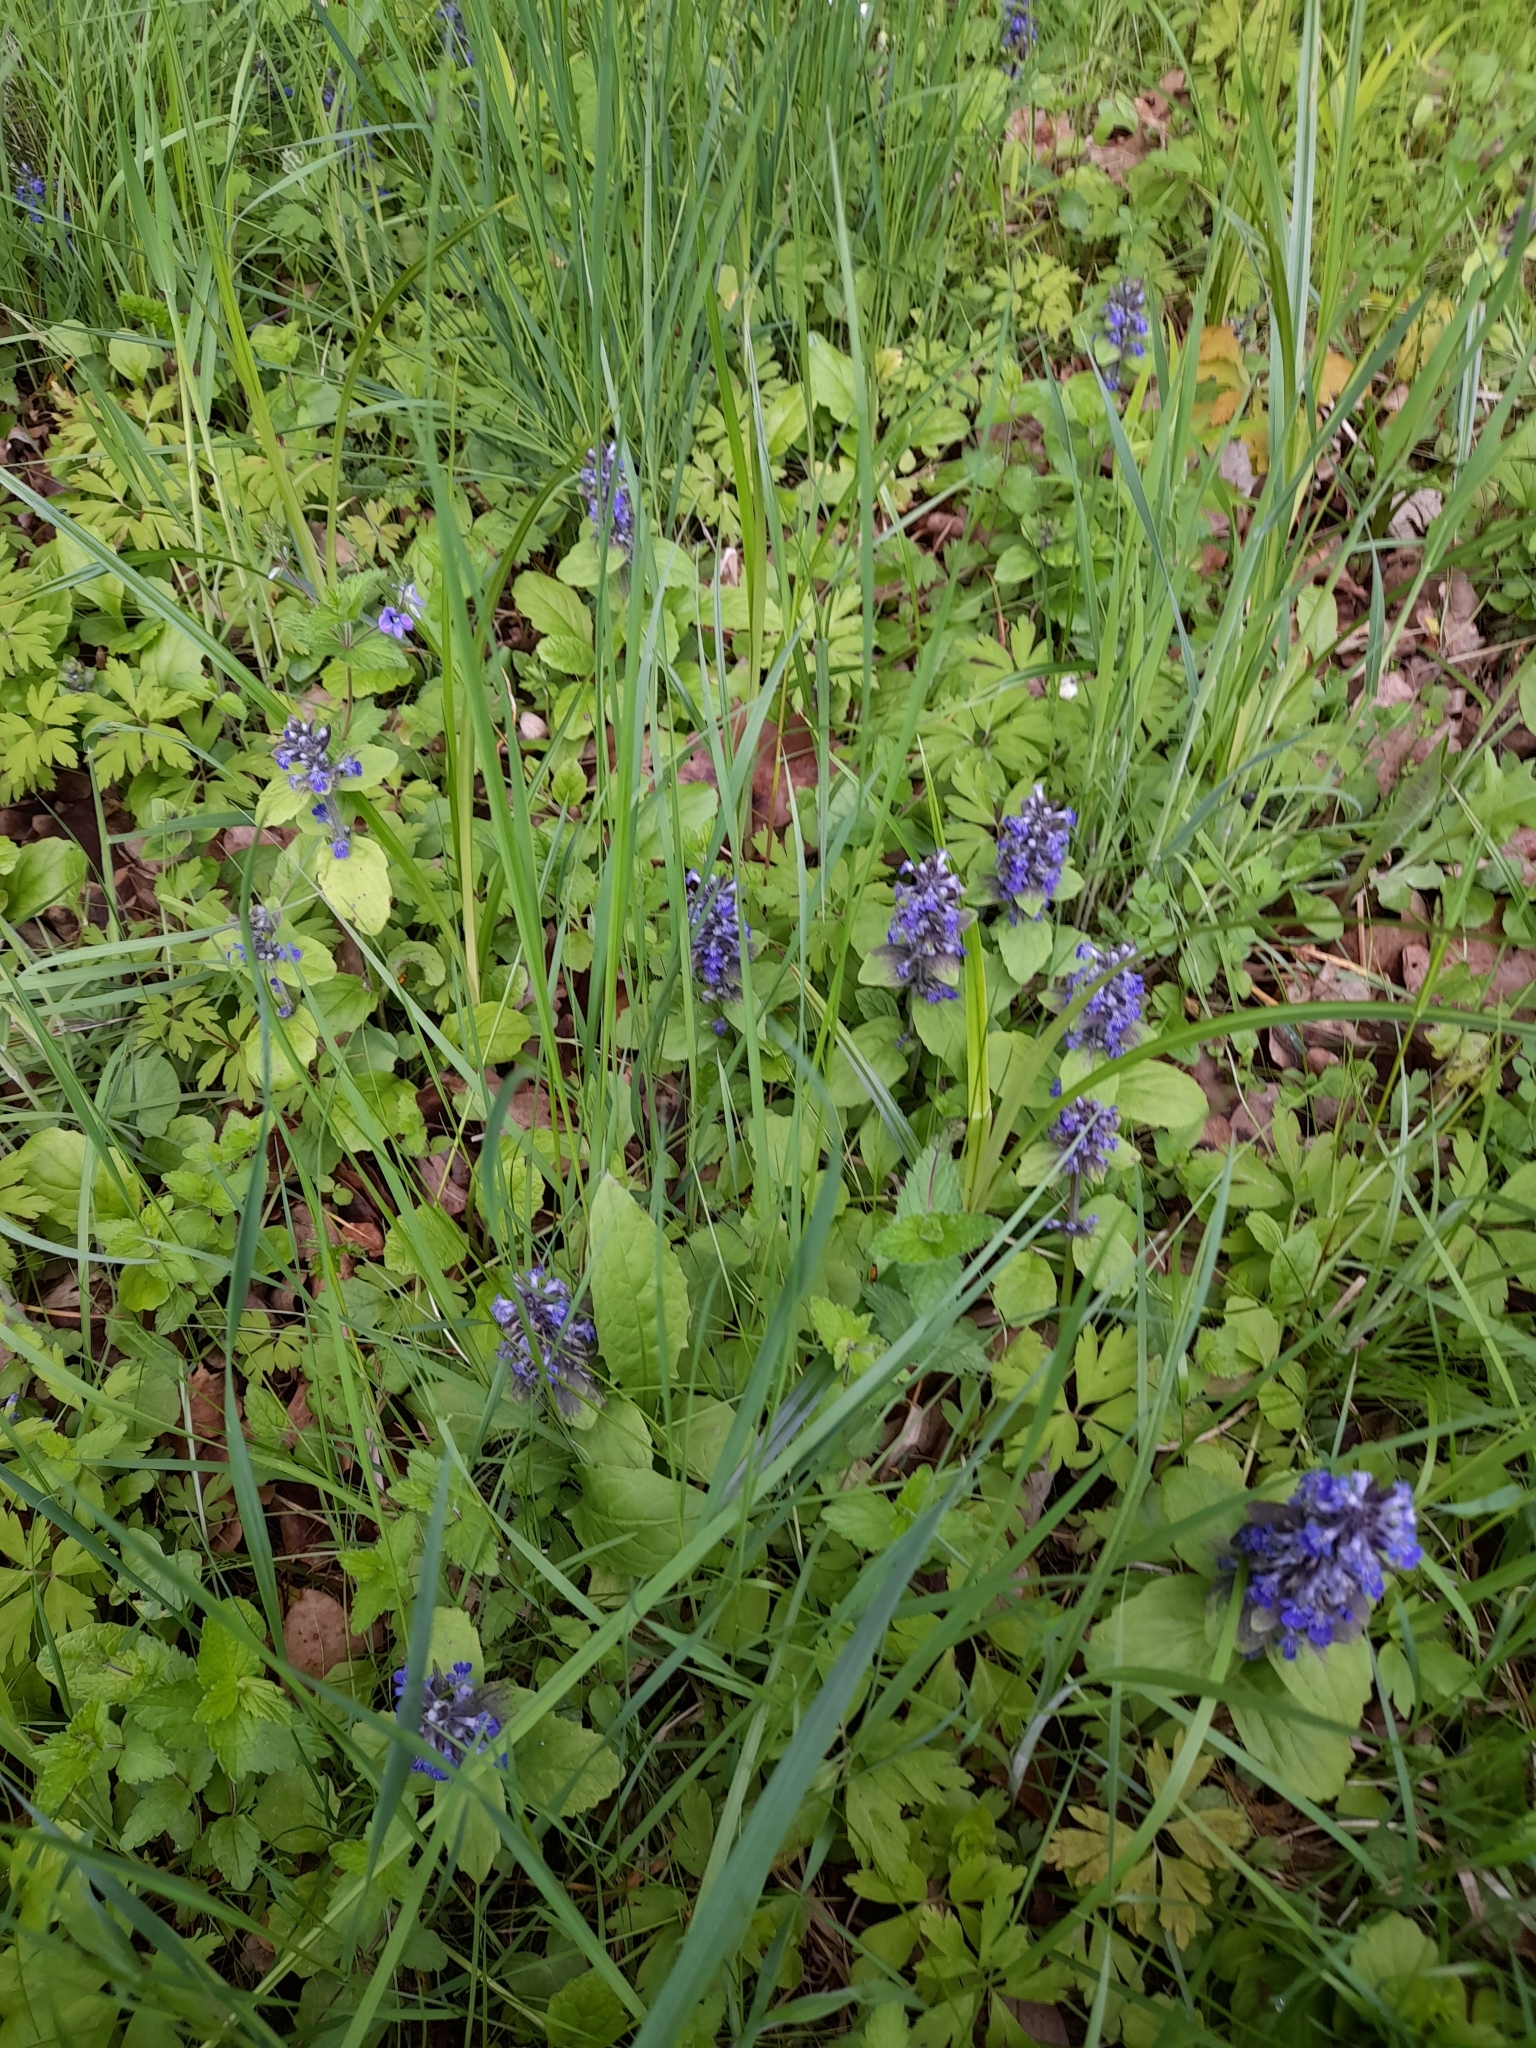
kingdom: Plantae
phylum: Tracheophyta
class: Magnoliopsida
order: Lamiales
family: Lamiaceae
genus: Ajuga
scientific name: Ajuga reptans
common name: Bugle
